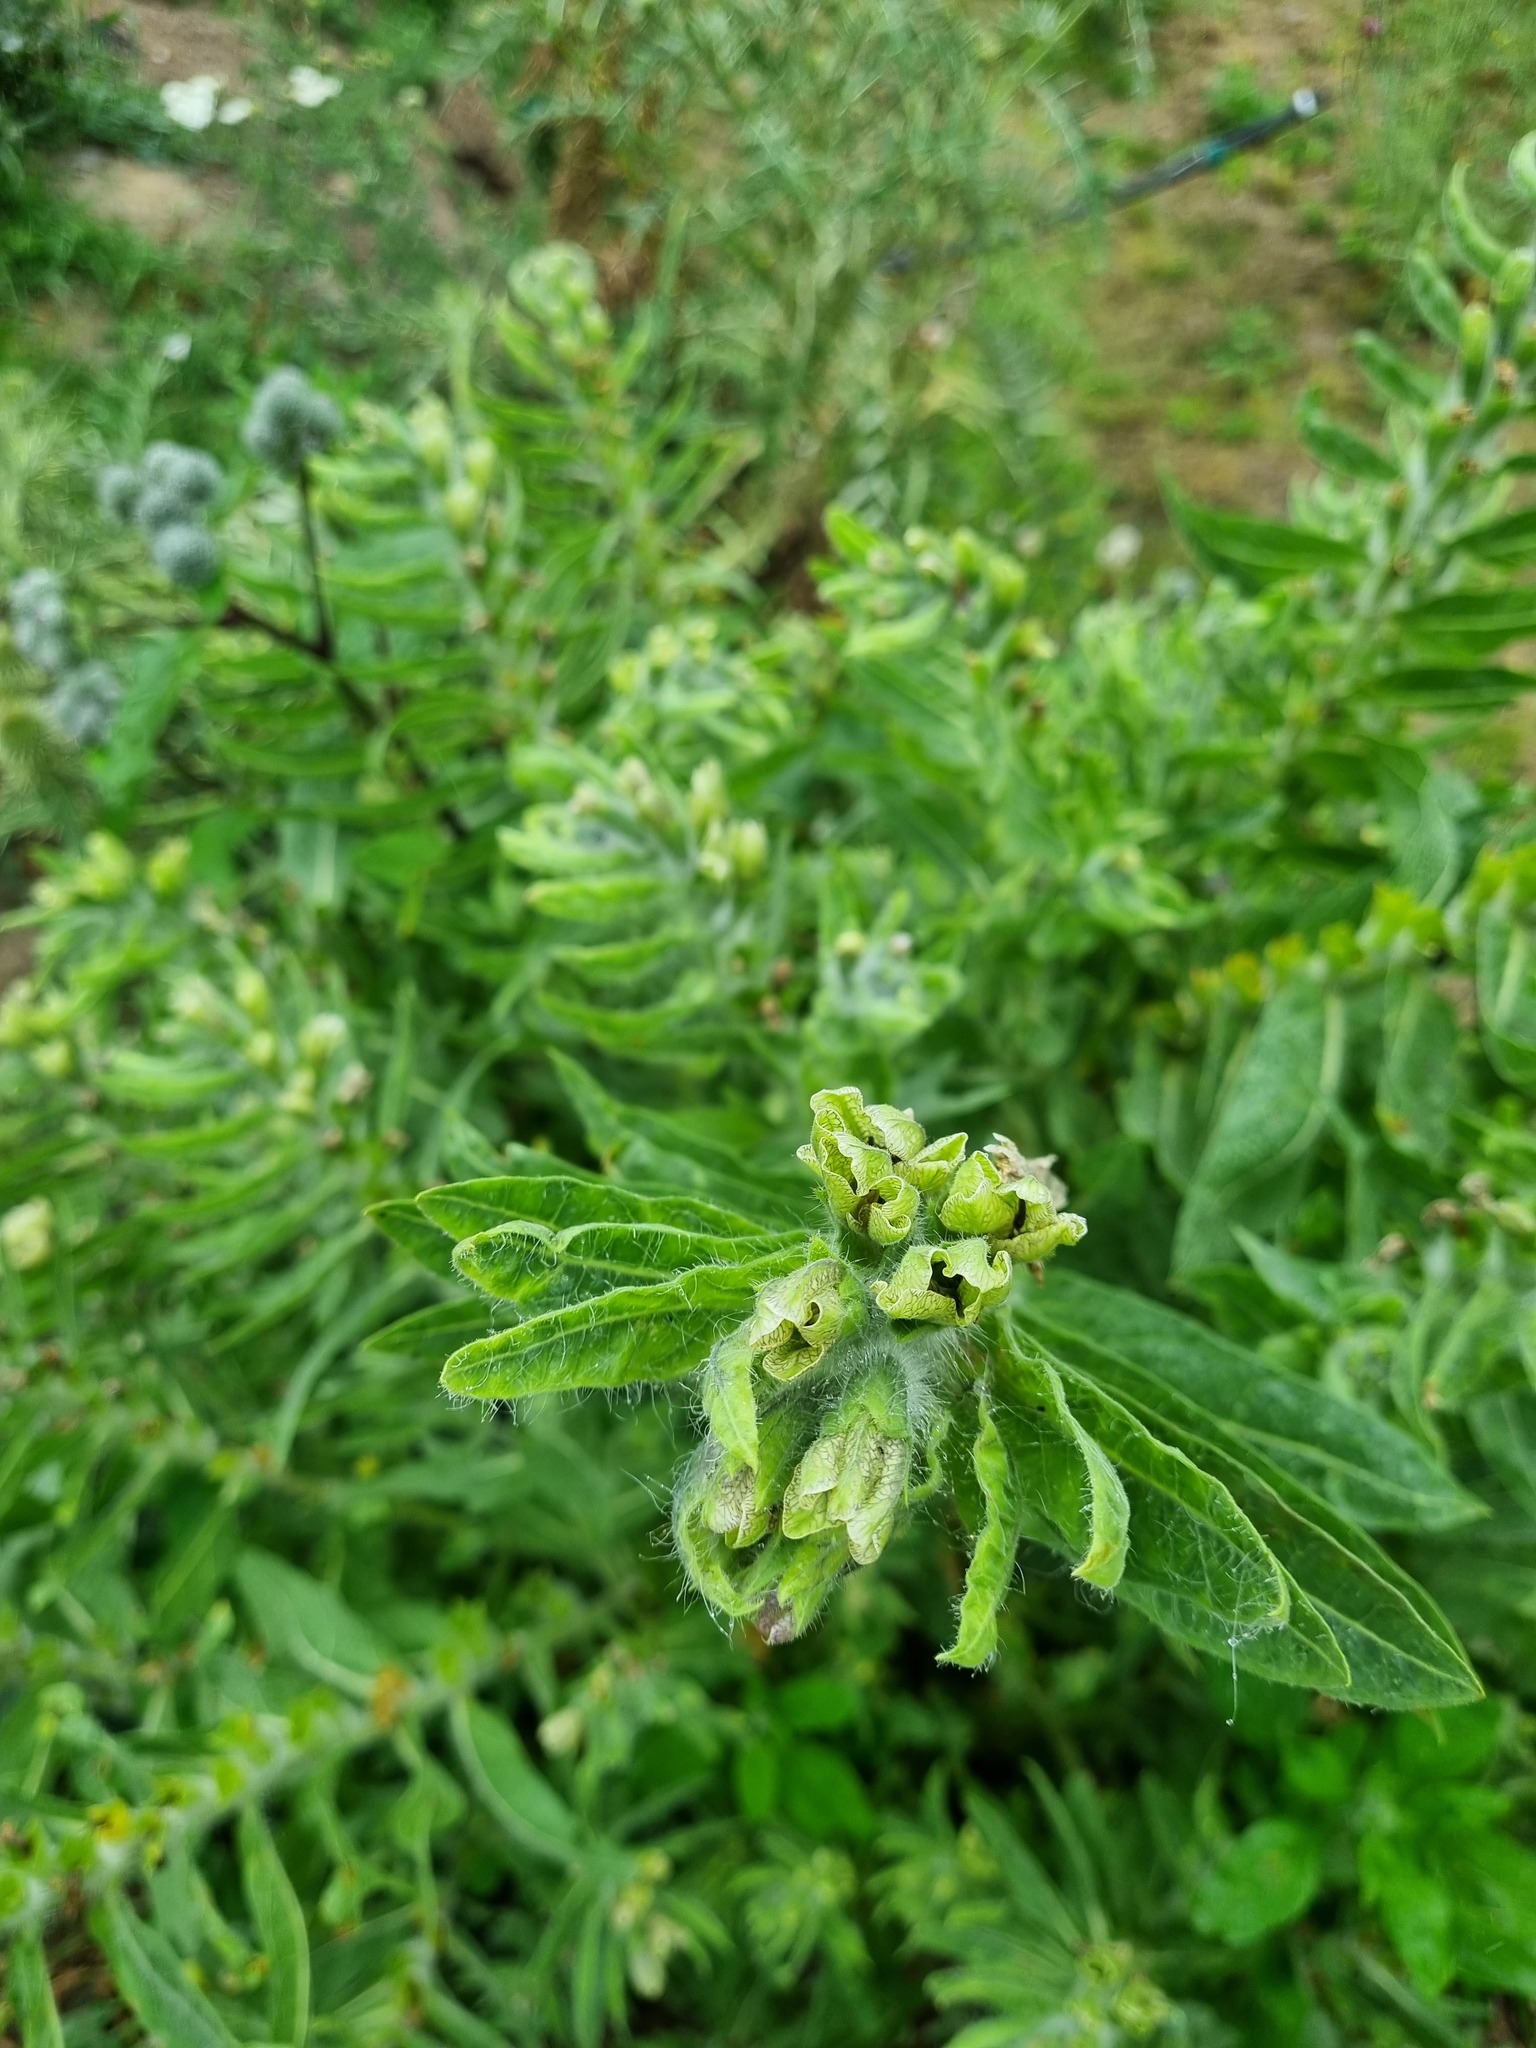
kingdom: Plantae
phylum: Tracheophyta
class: Magnoliopsida
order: Solanales
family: Solanaceae
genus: Hyoscyamus
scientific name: Hyoscyamus niger
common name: Henbane
